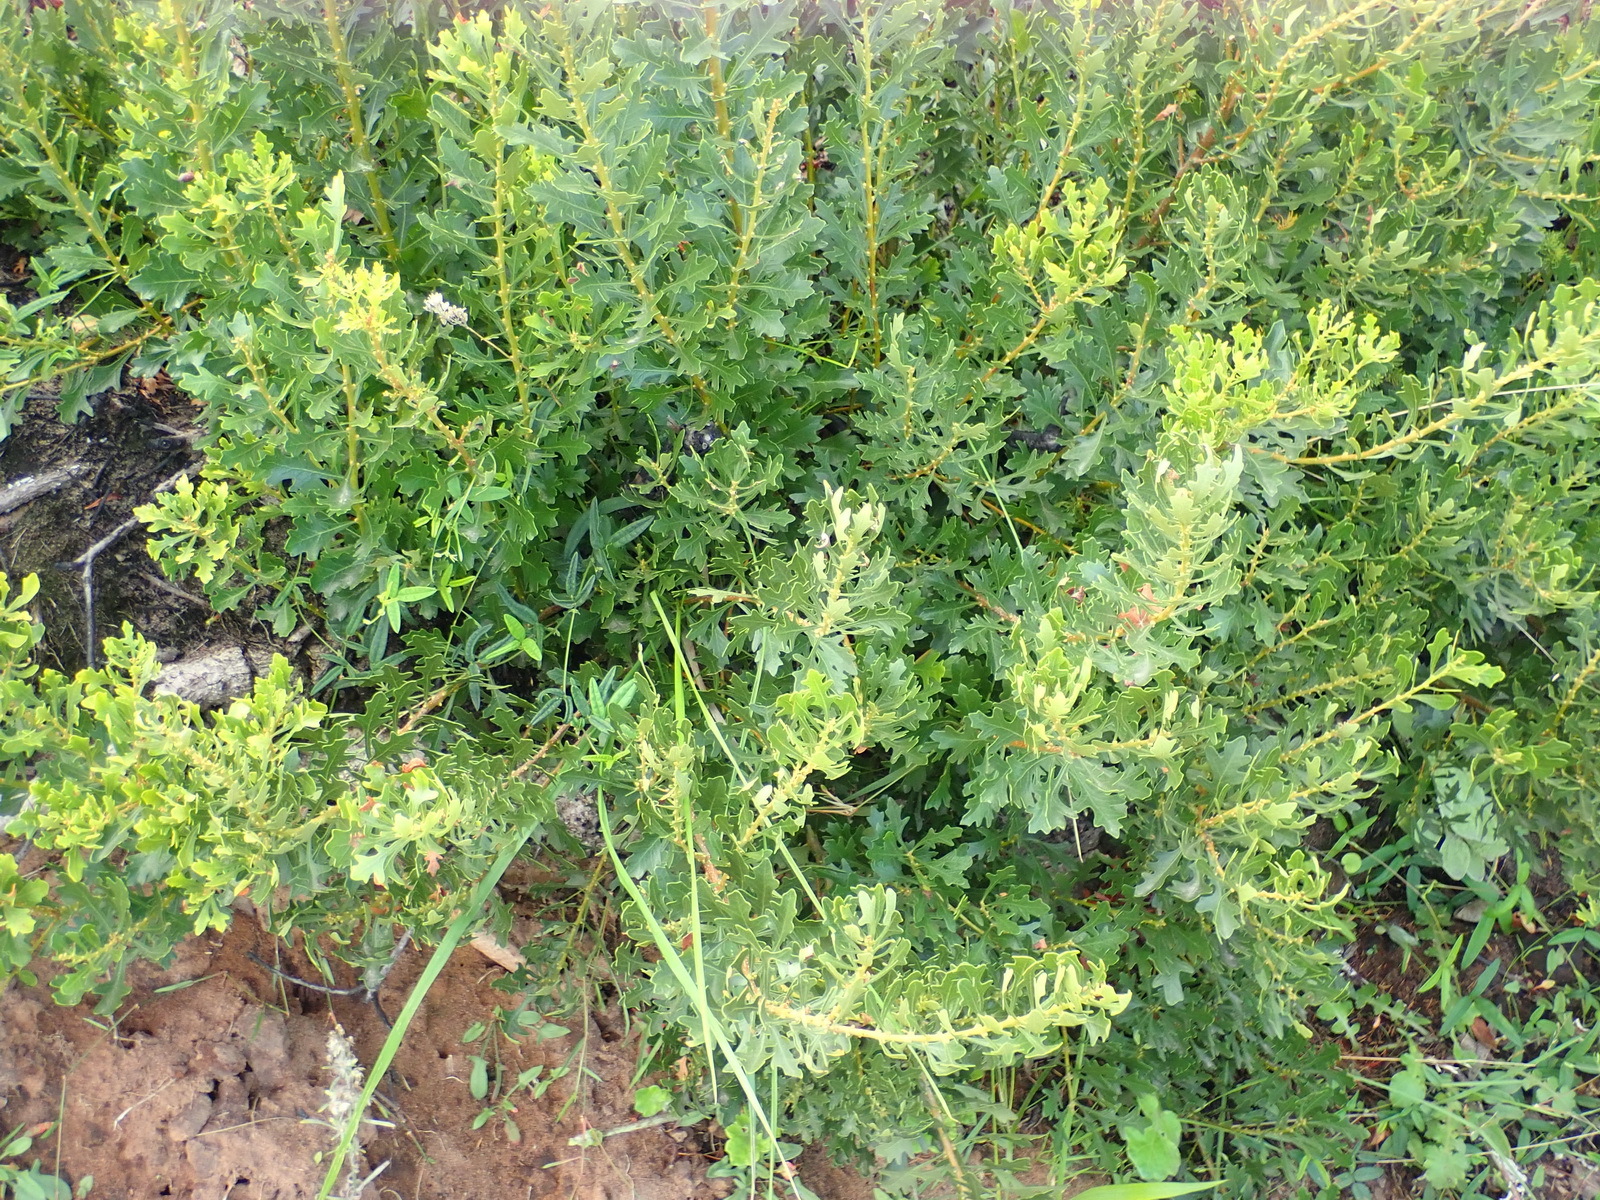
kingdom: Plantae
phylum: Tracheophyta
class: Magnoliopsida
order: Fagales
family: Myricaceae
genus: Morella
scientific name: Morella quercifolia
